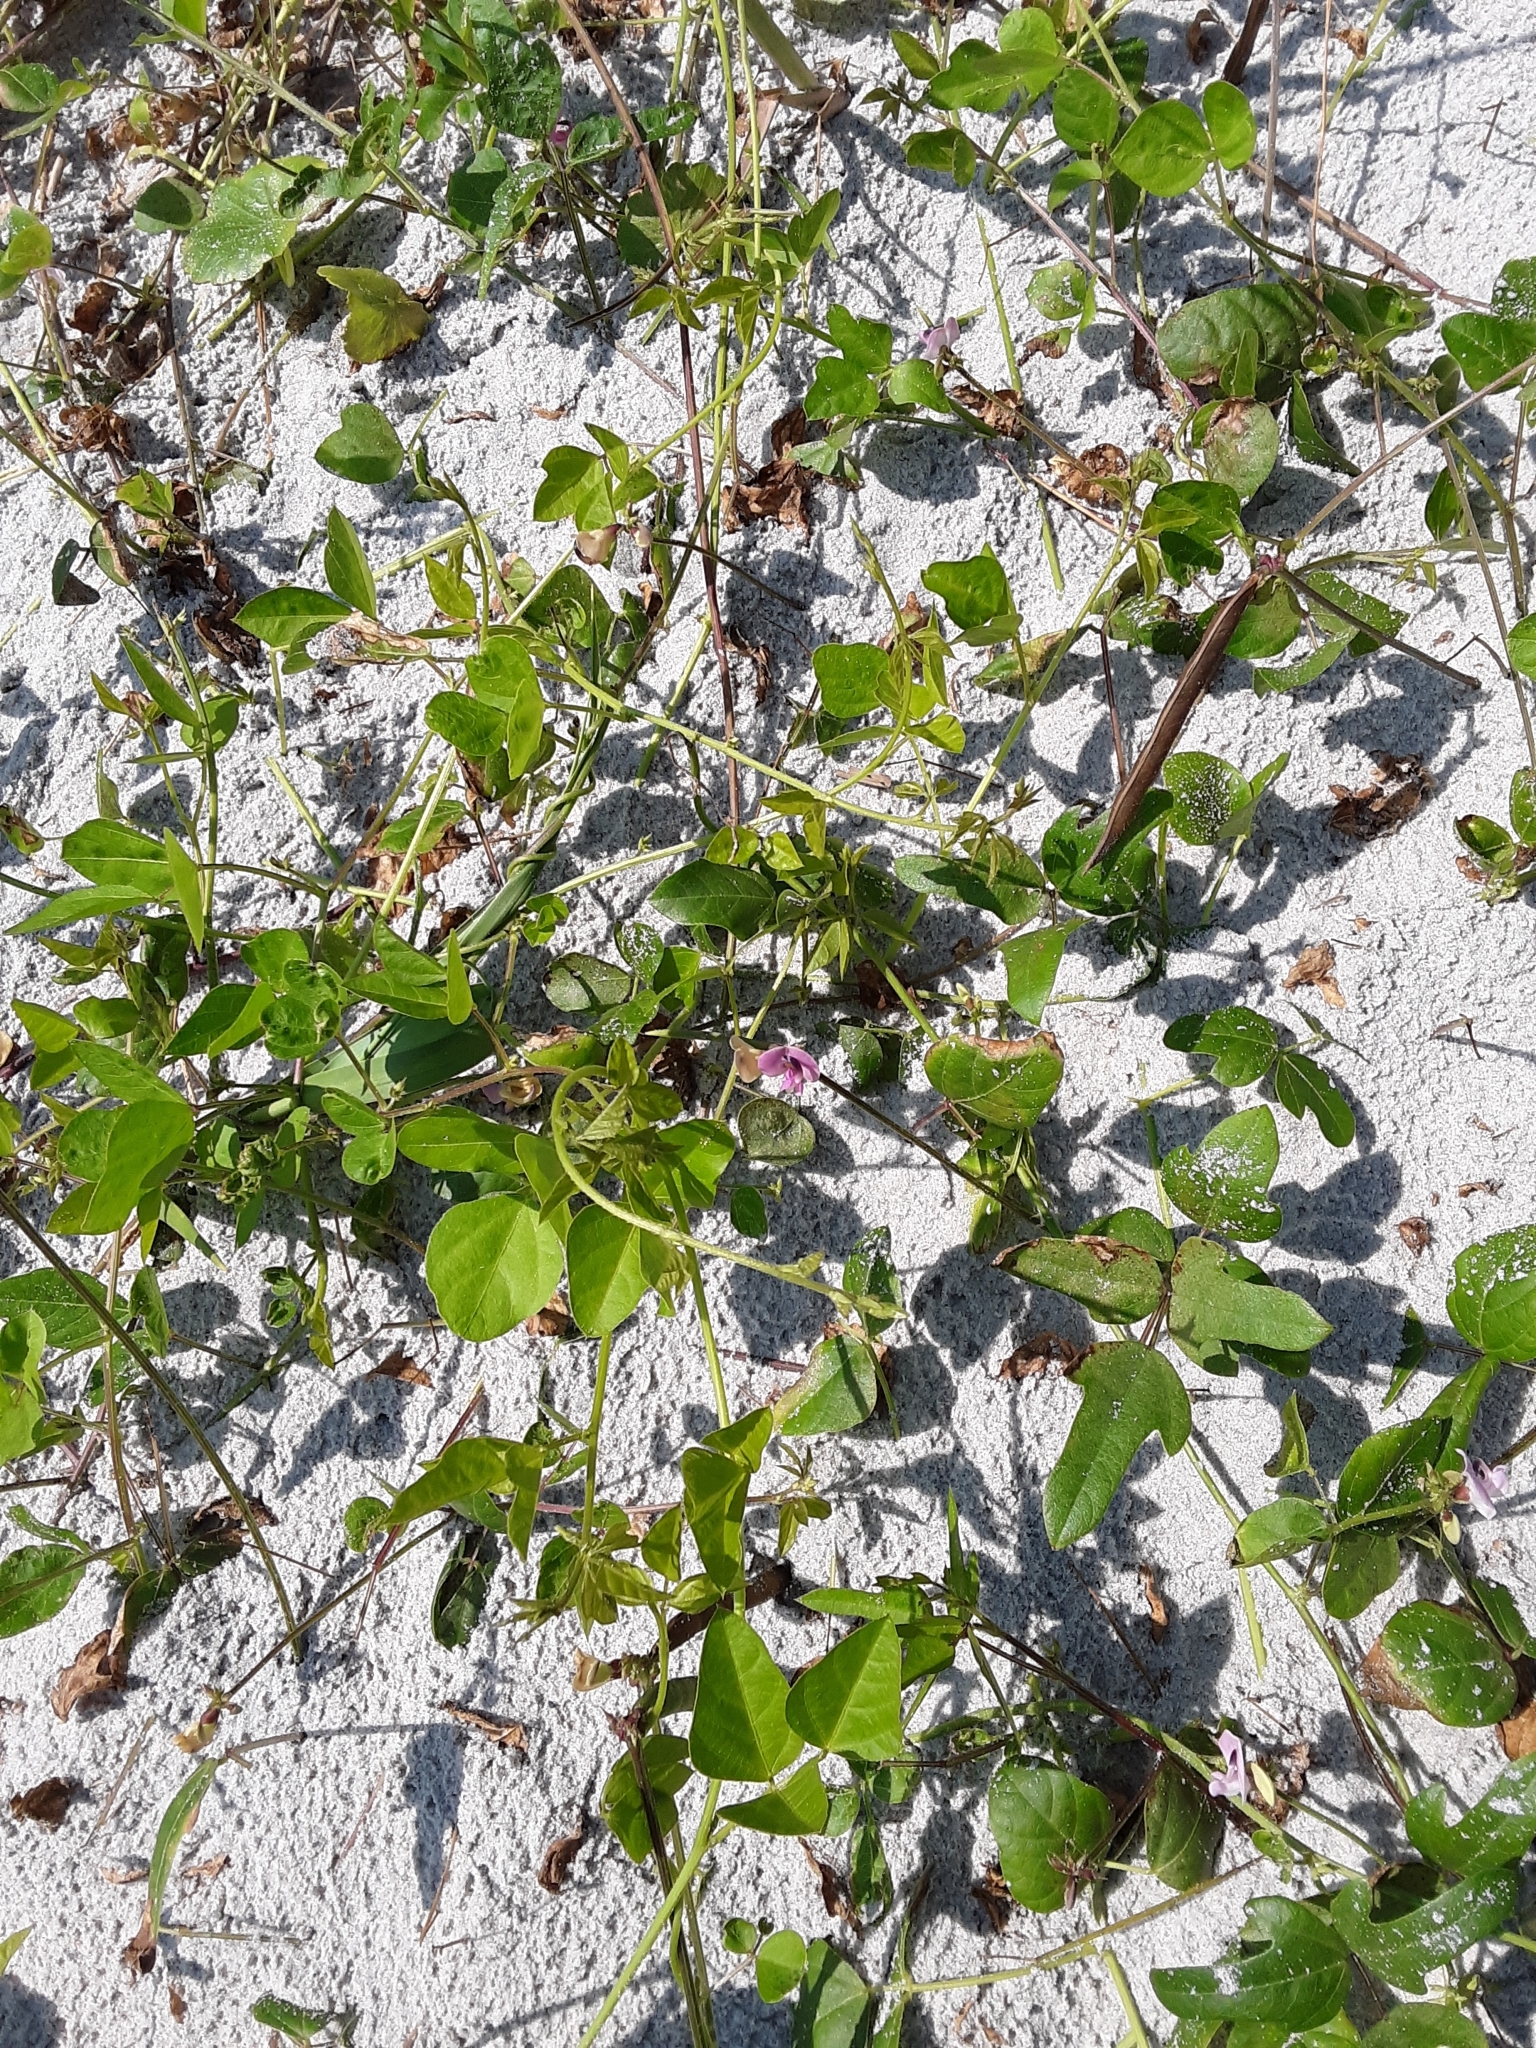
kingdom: Plantae
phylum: Tracheophyta
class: Magnoliopsida
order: Fabales
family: Fabaceae
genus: Strophostyles
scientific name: Strophostyles helvola
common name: Trailing wild bean
